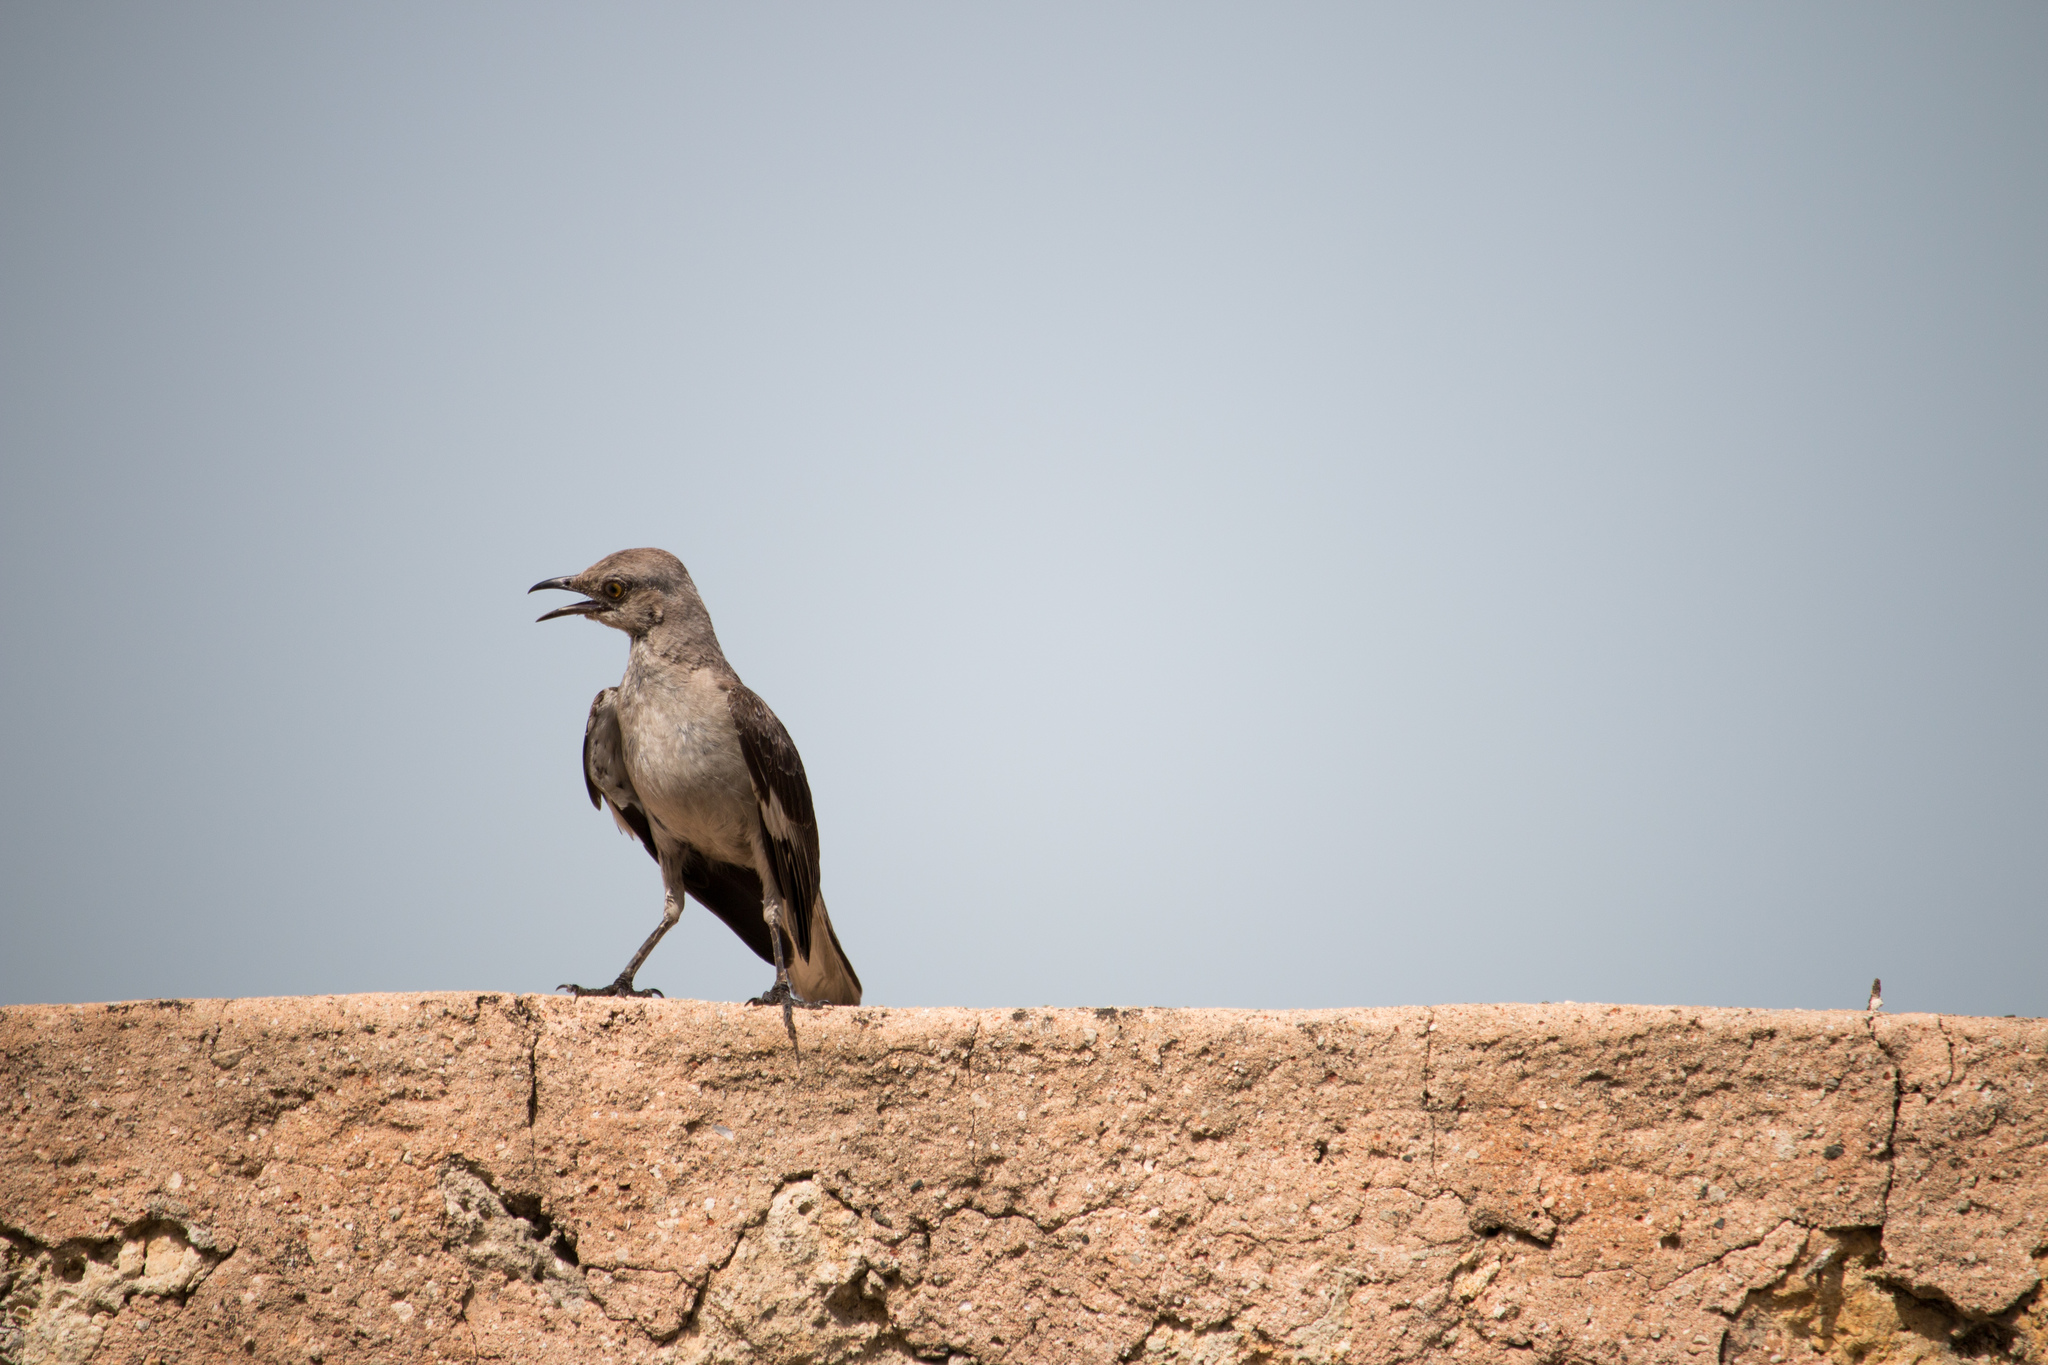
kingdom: Animalia
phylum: Chordata
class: Aves
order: Passeriformes
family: Mimidae
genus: Mimus
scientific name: Mimus polyglottos
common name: Northern mockingbird
